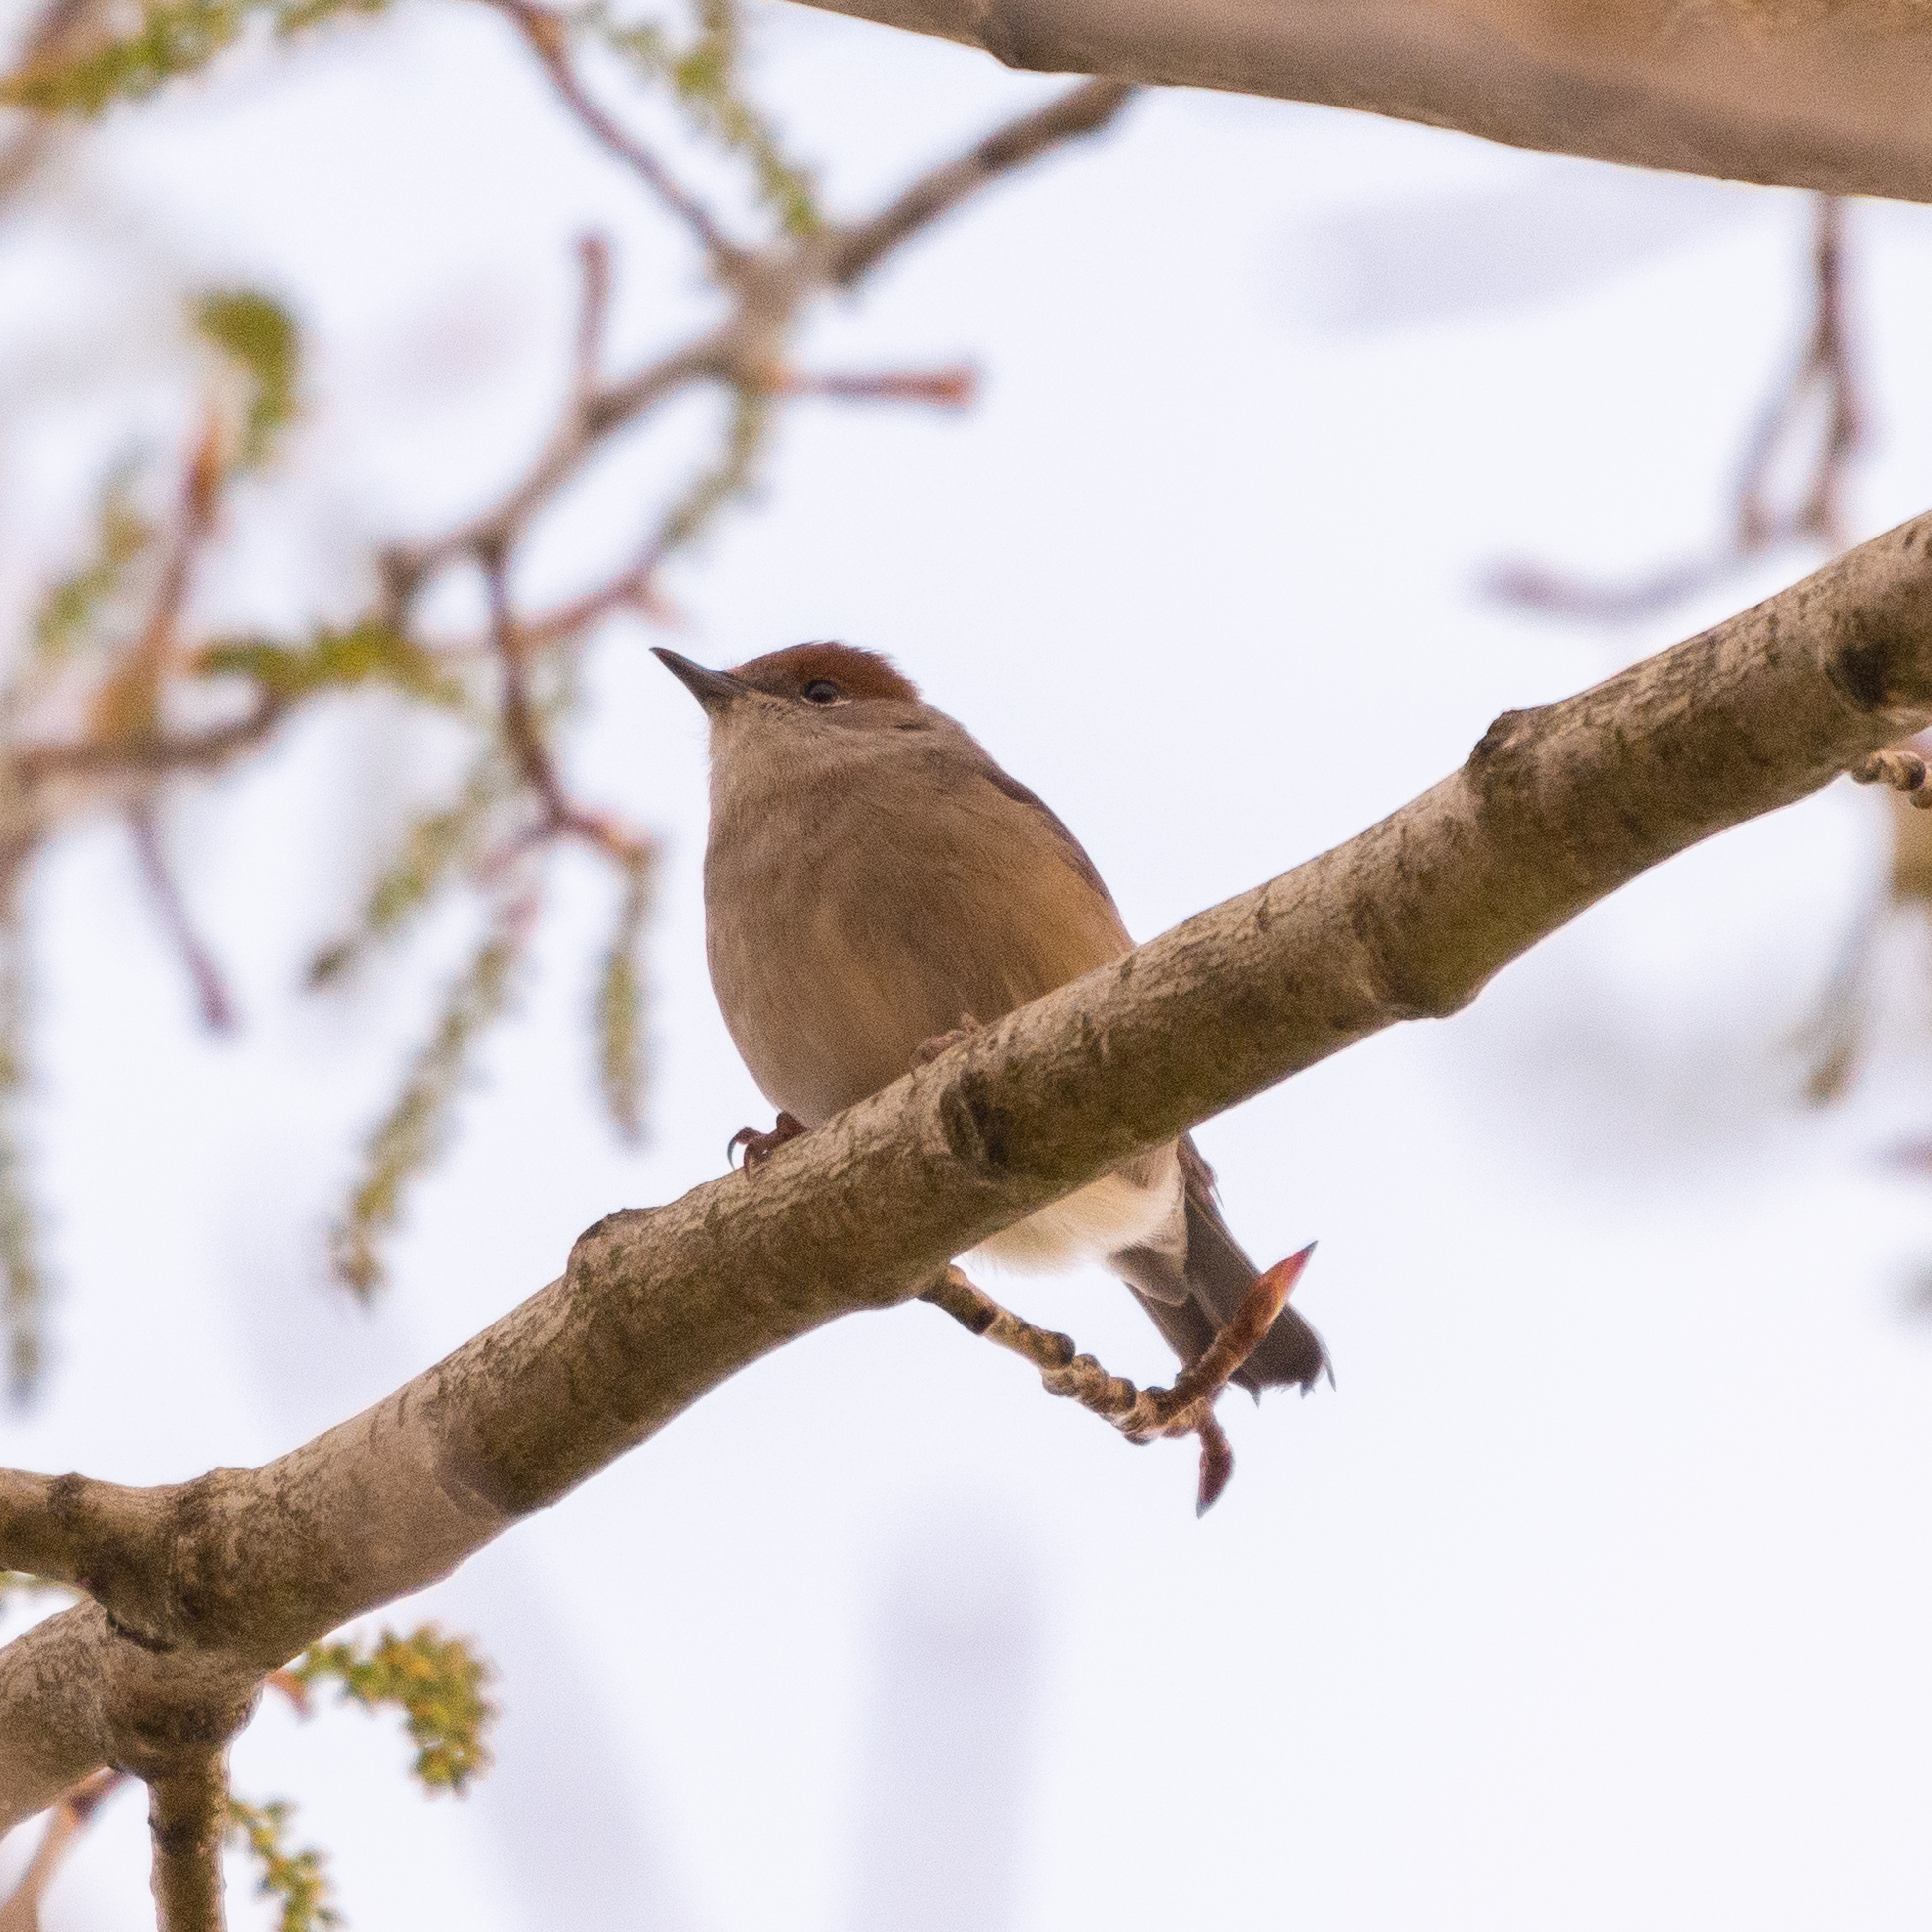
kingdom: Animalia
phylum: Chordata
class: Aves
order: Passeriformes
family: Sylviidae
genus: Sylvia
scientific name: Sylvia atricapilla
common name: Eurasian blackcap
